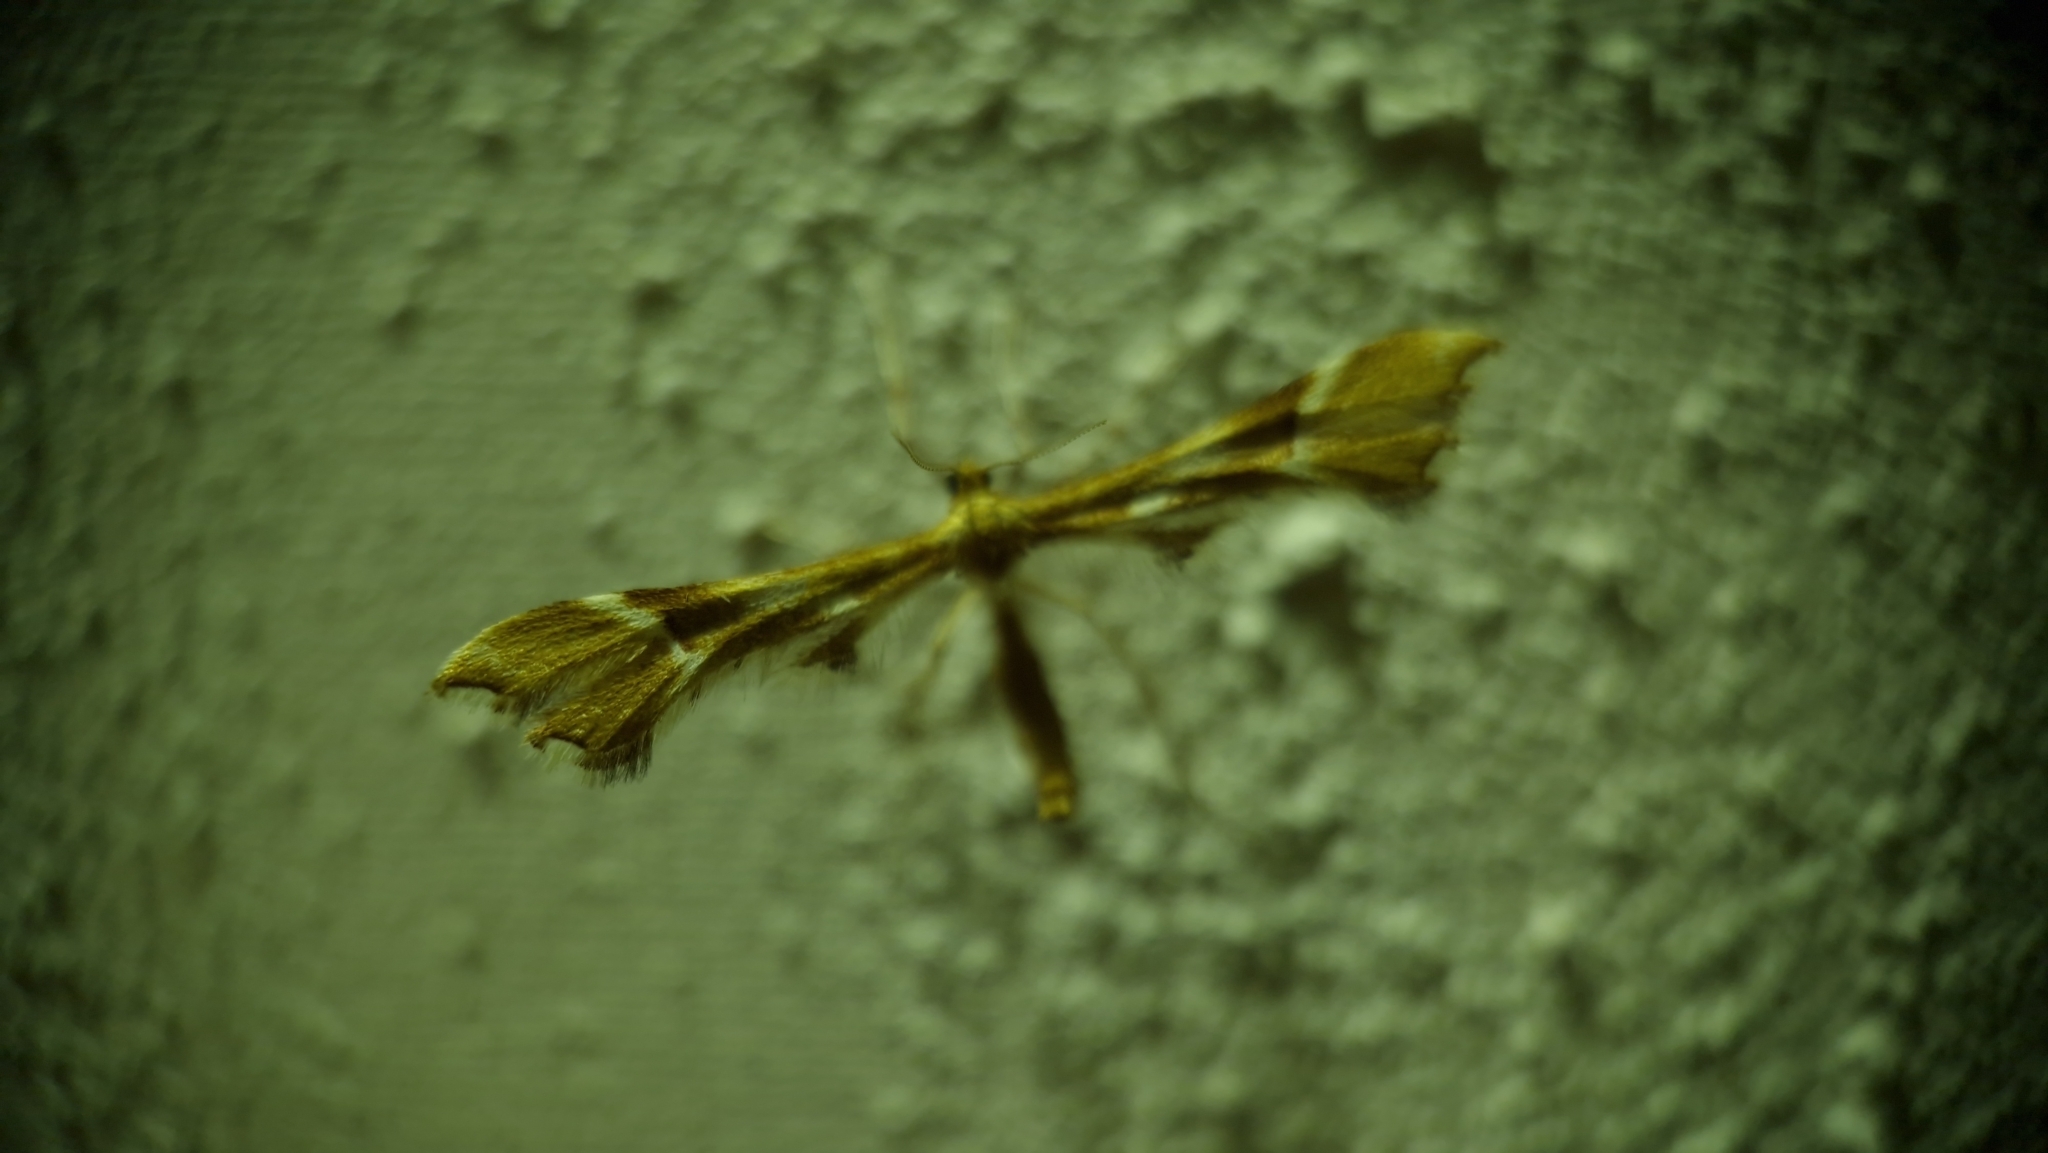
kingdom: Animalia
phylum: Arthropoda
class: Insecta
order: Lepidoptera
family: Pterophoridae
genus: Cnaemidophorus
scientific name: Cnaemidophorus rhododactyla
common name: Rose plume
